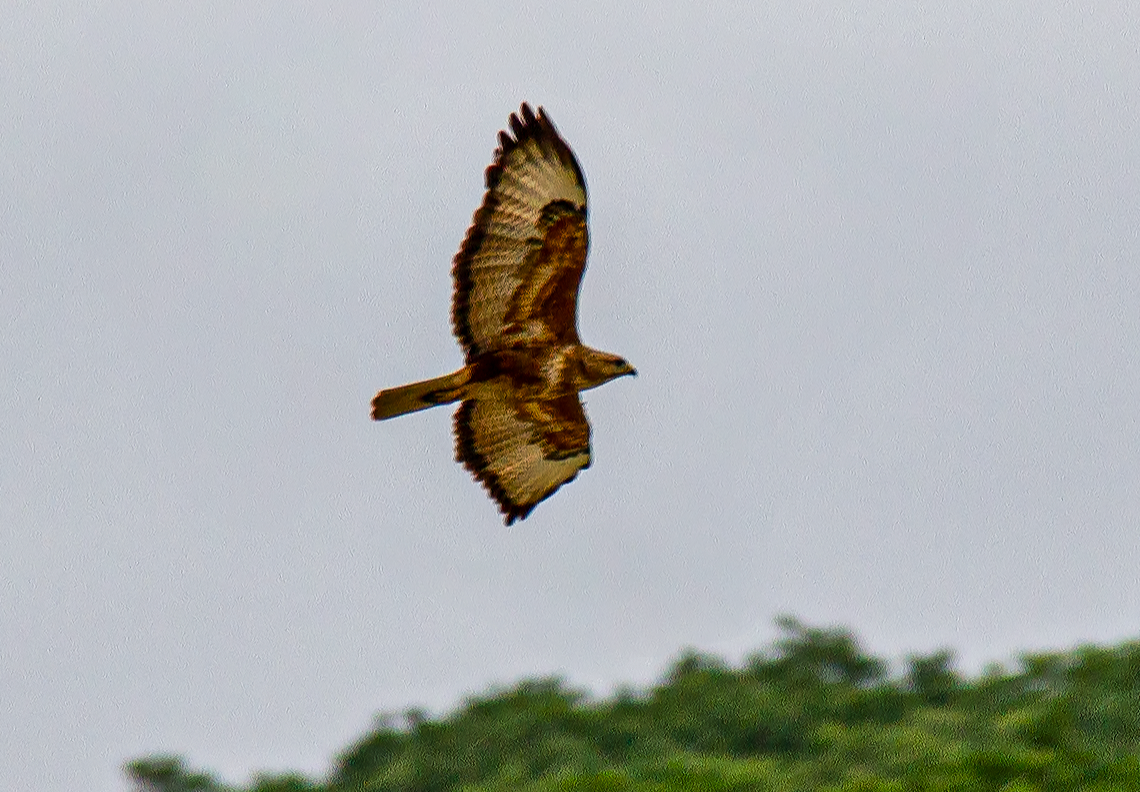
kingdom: Animalia
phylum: Chordata
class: Aves
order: Accipitriformes
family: Accipitridae
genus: Buteo
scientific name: Buteo buteo
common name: Common buzzard
